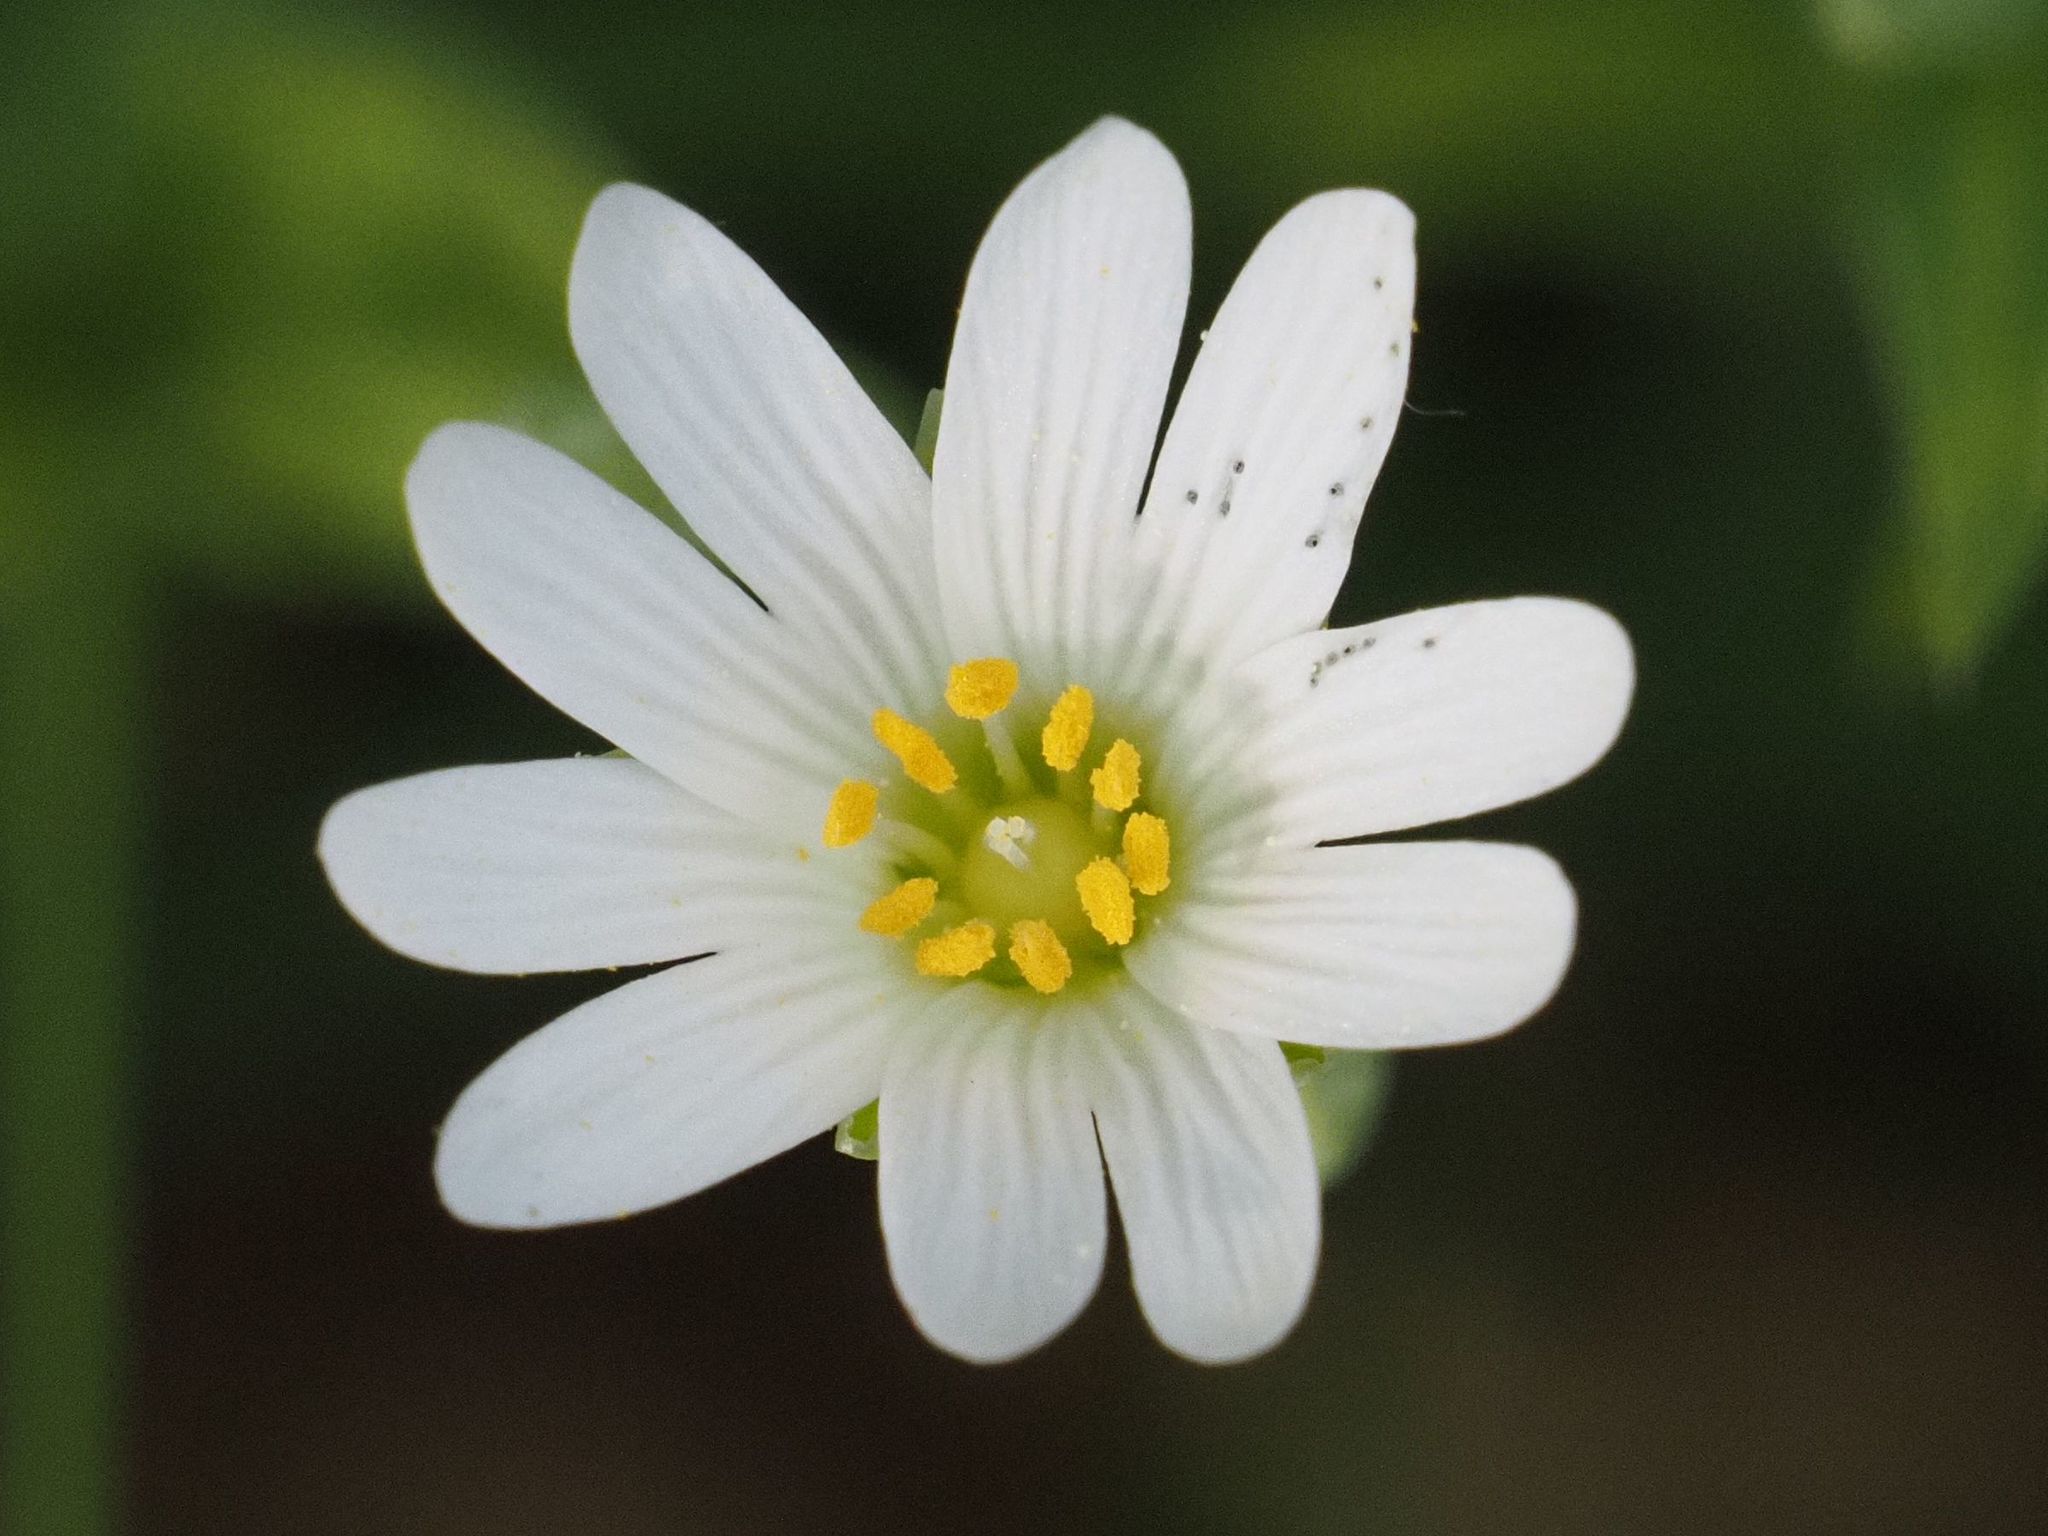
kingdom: Plantae
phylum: Tracheophyta
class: Magnoliopsida
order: Caryophyllales
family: Caryophyllaceae
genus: Rabelera
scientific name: Rabelera holostea
